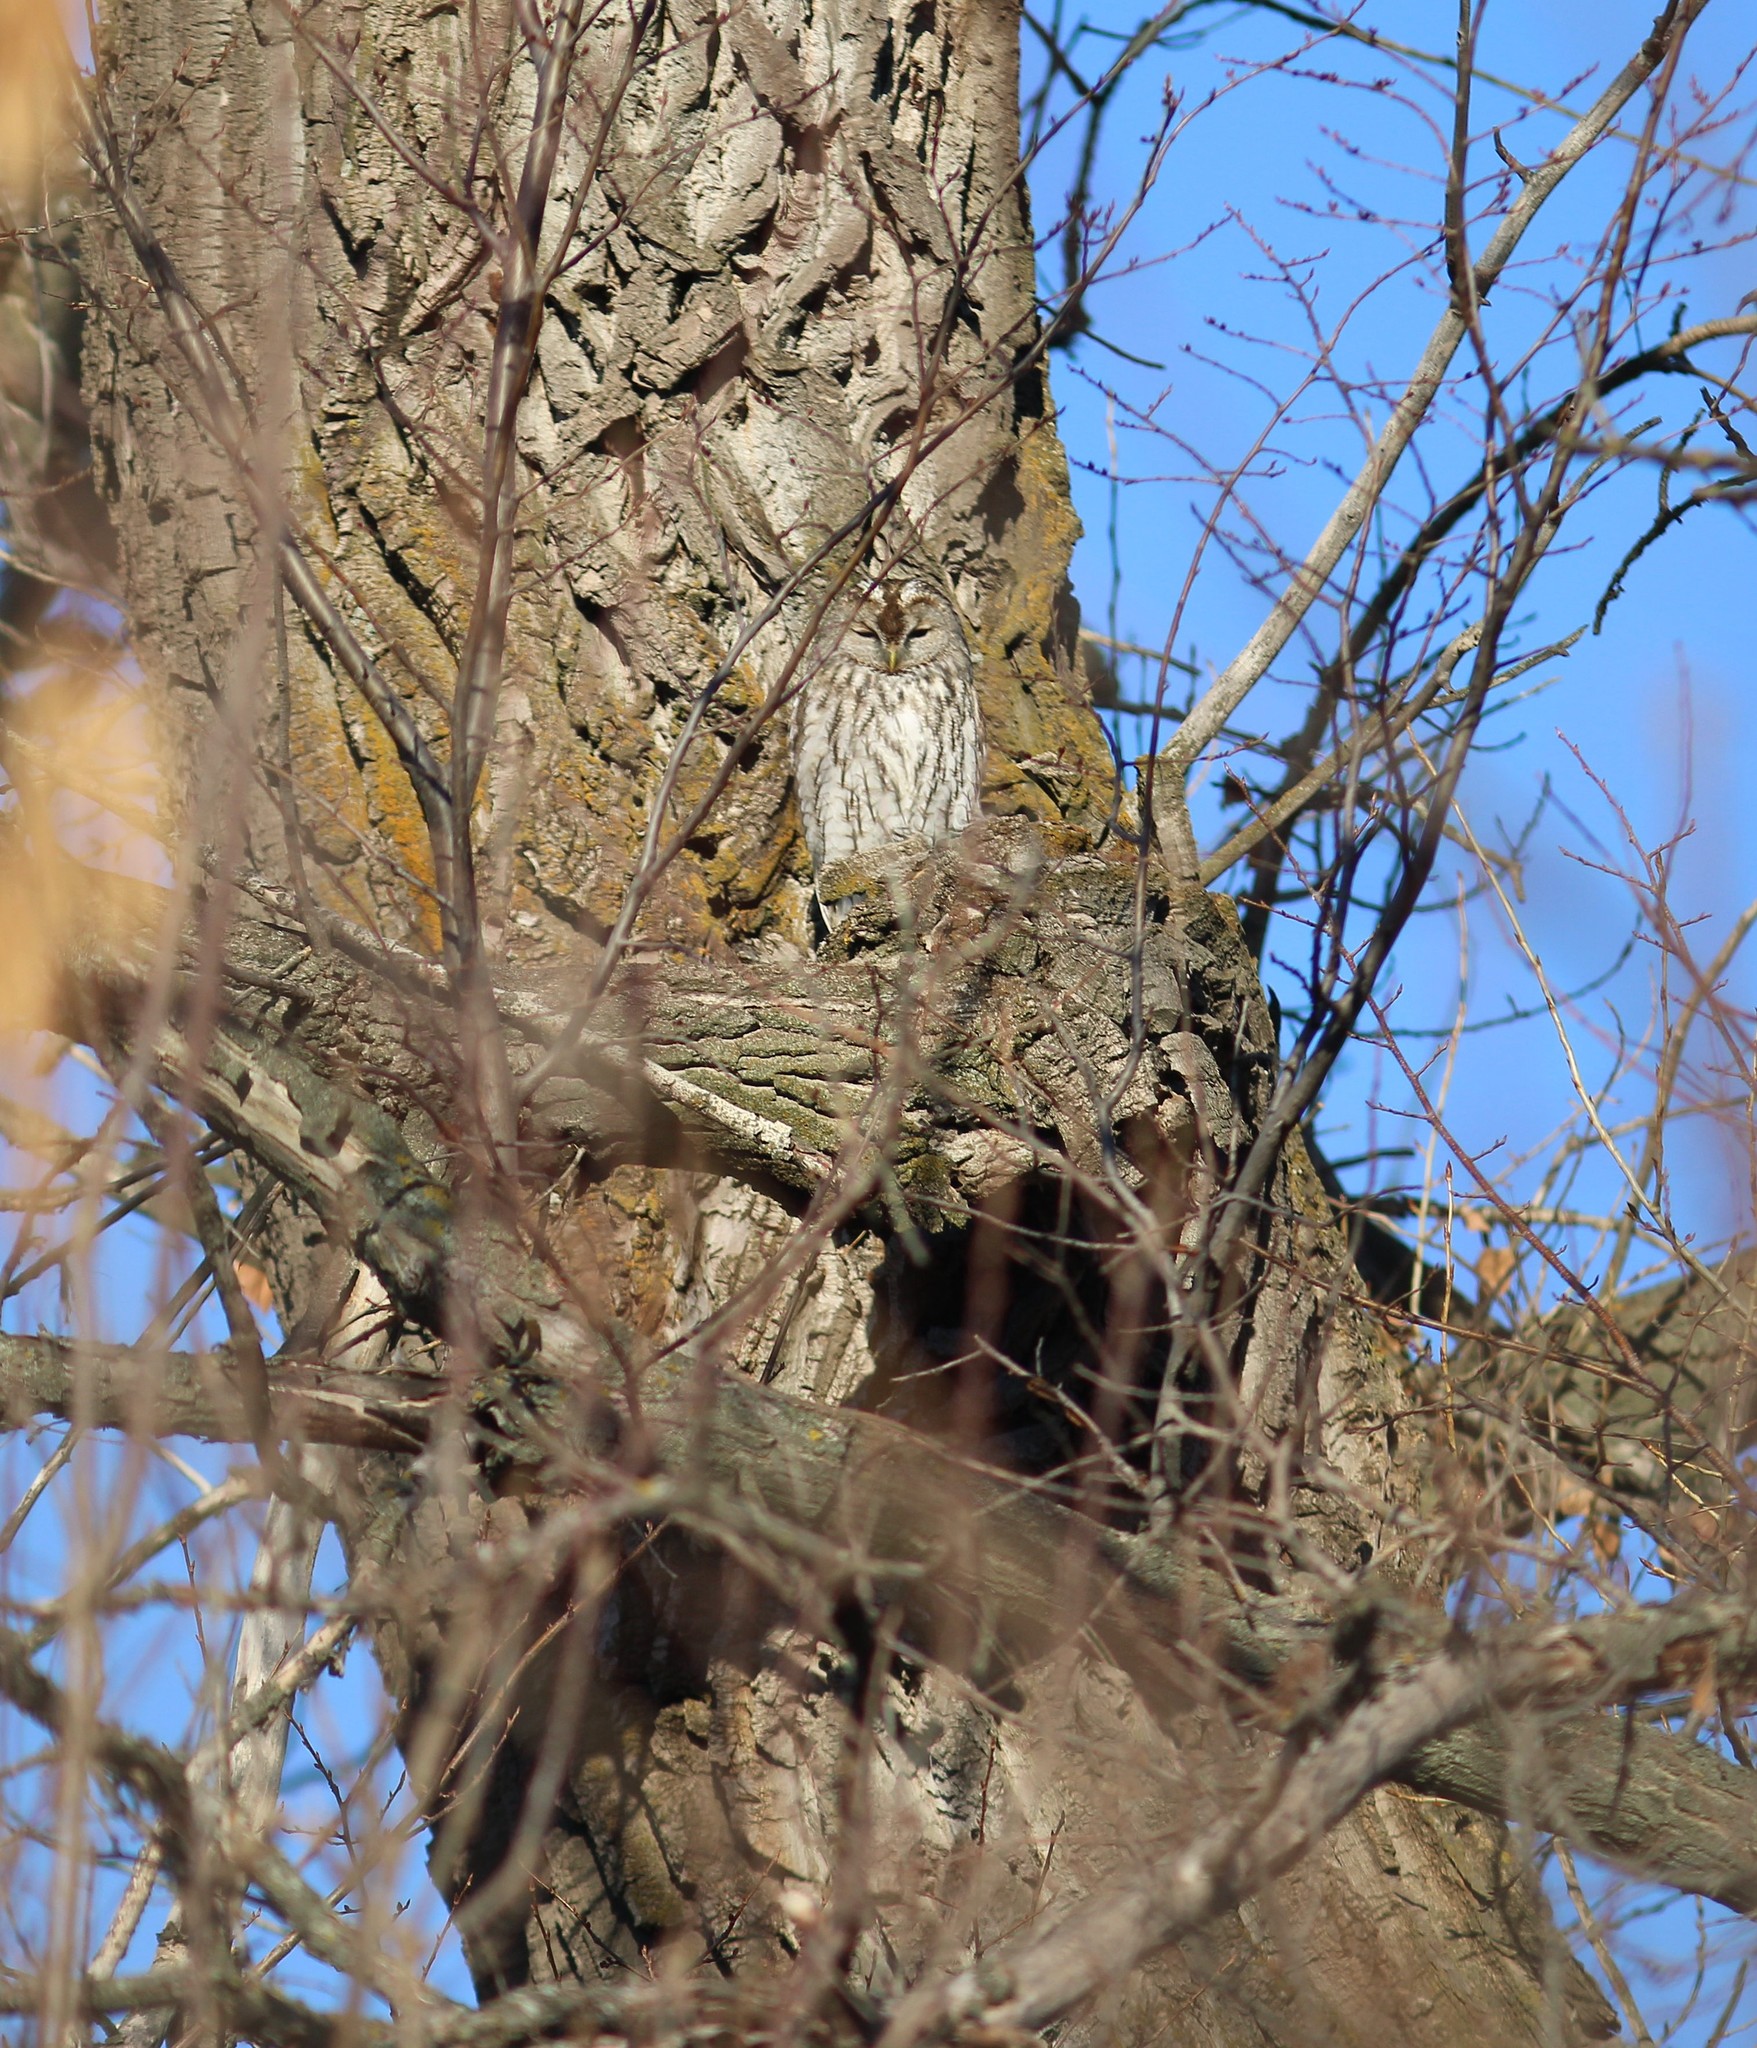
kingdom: Animalia
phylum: Chordata
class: Aves
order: Strigiformes
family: Strigidae
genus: Strix
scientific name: Strix aluco
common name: Tawny owl
